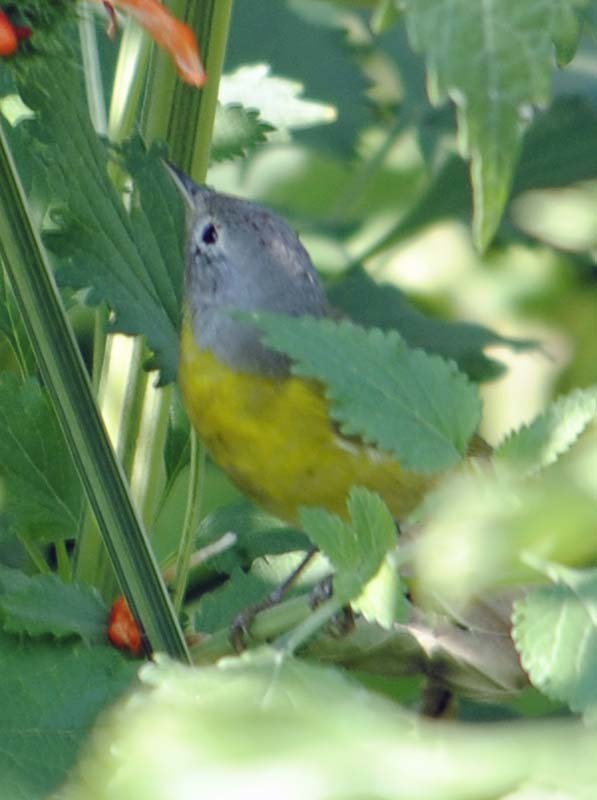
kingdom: Animalia
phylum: Chordata
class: Aves
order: Passeriformes
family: Parulidae
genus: Leiothlypis
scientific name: Leiothlypis ruficapilla
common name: Nashville warbler
